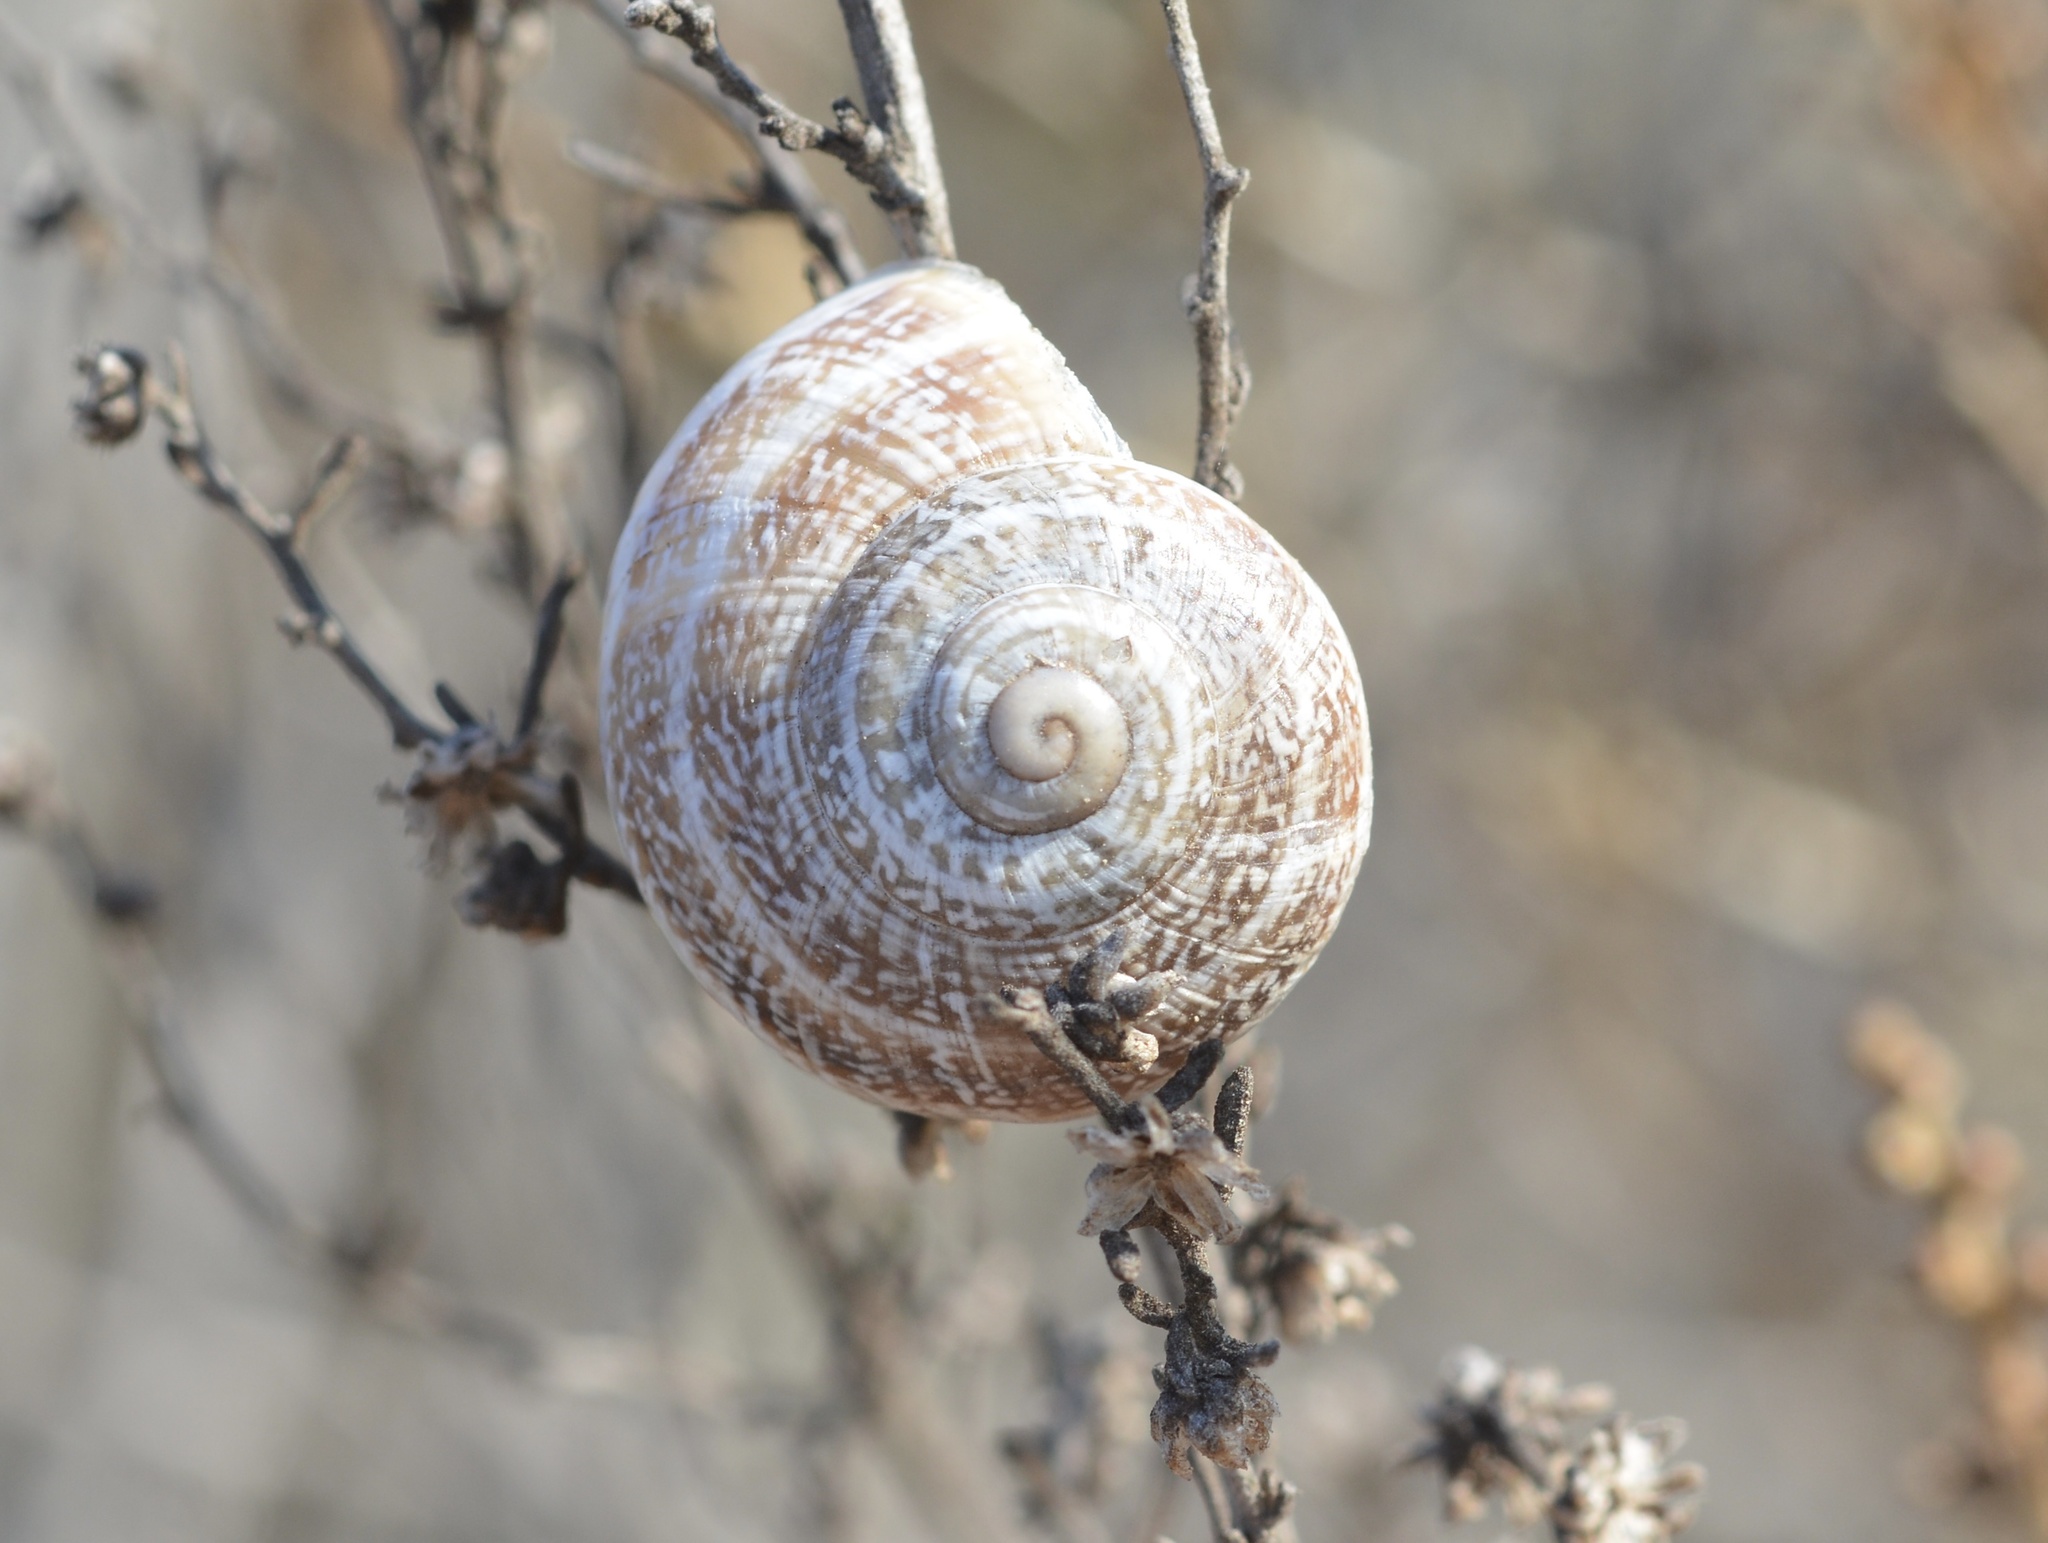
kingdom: Animalia
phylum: Mollusca
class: Gastropoda
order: Stylommatophora
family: Helicidae
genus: Otala
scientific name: Otala lactea
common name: Milk snail
